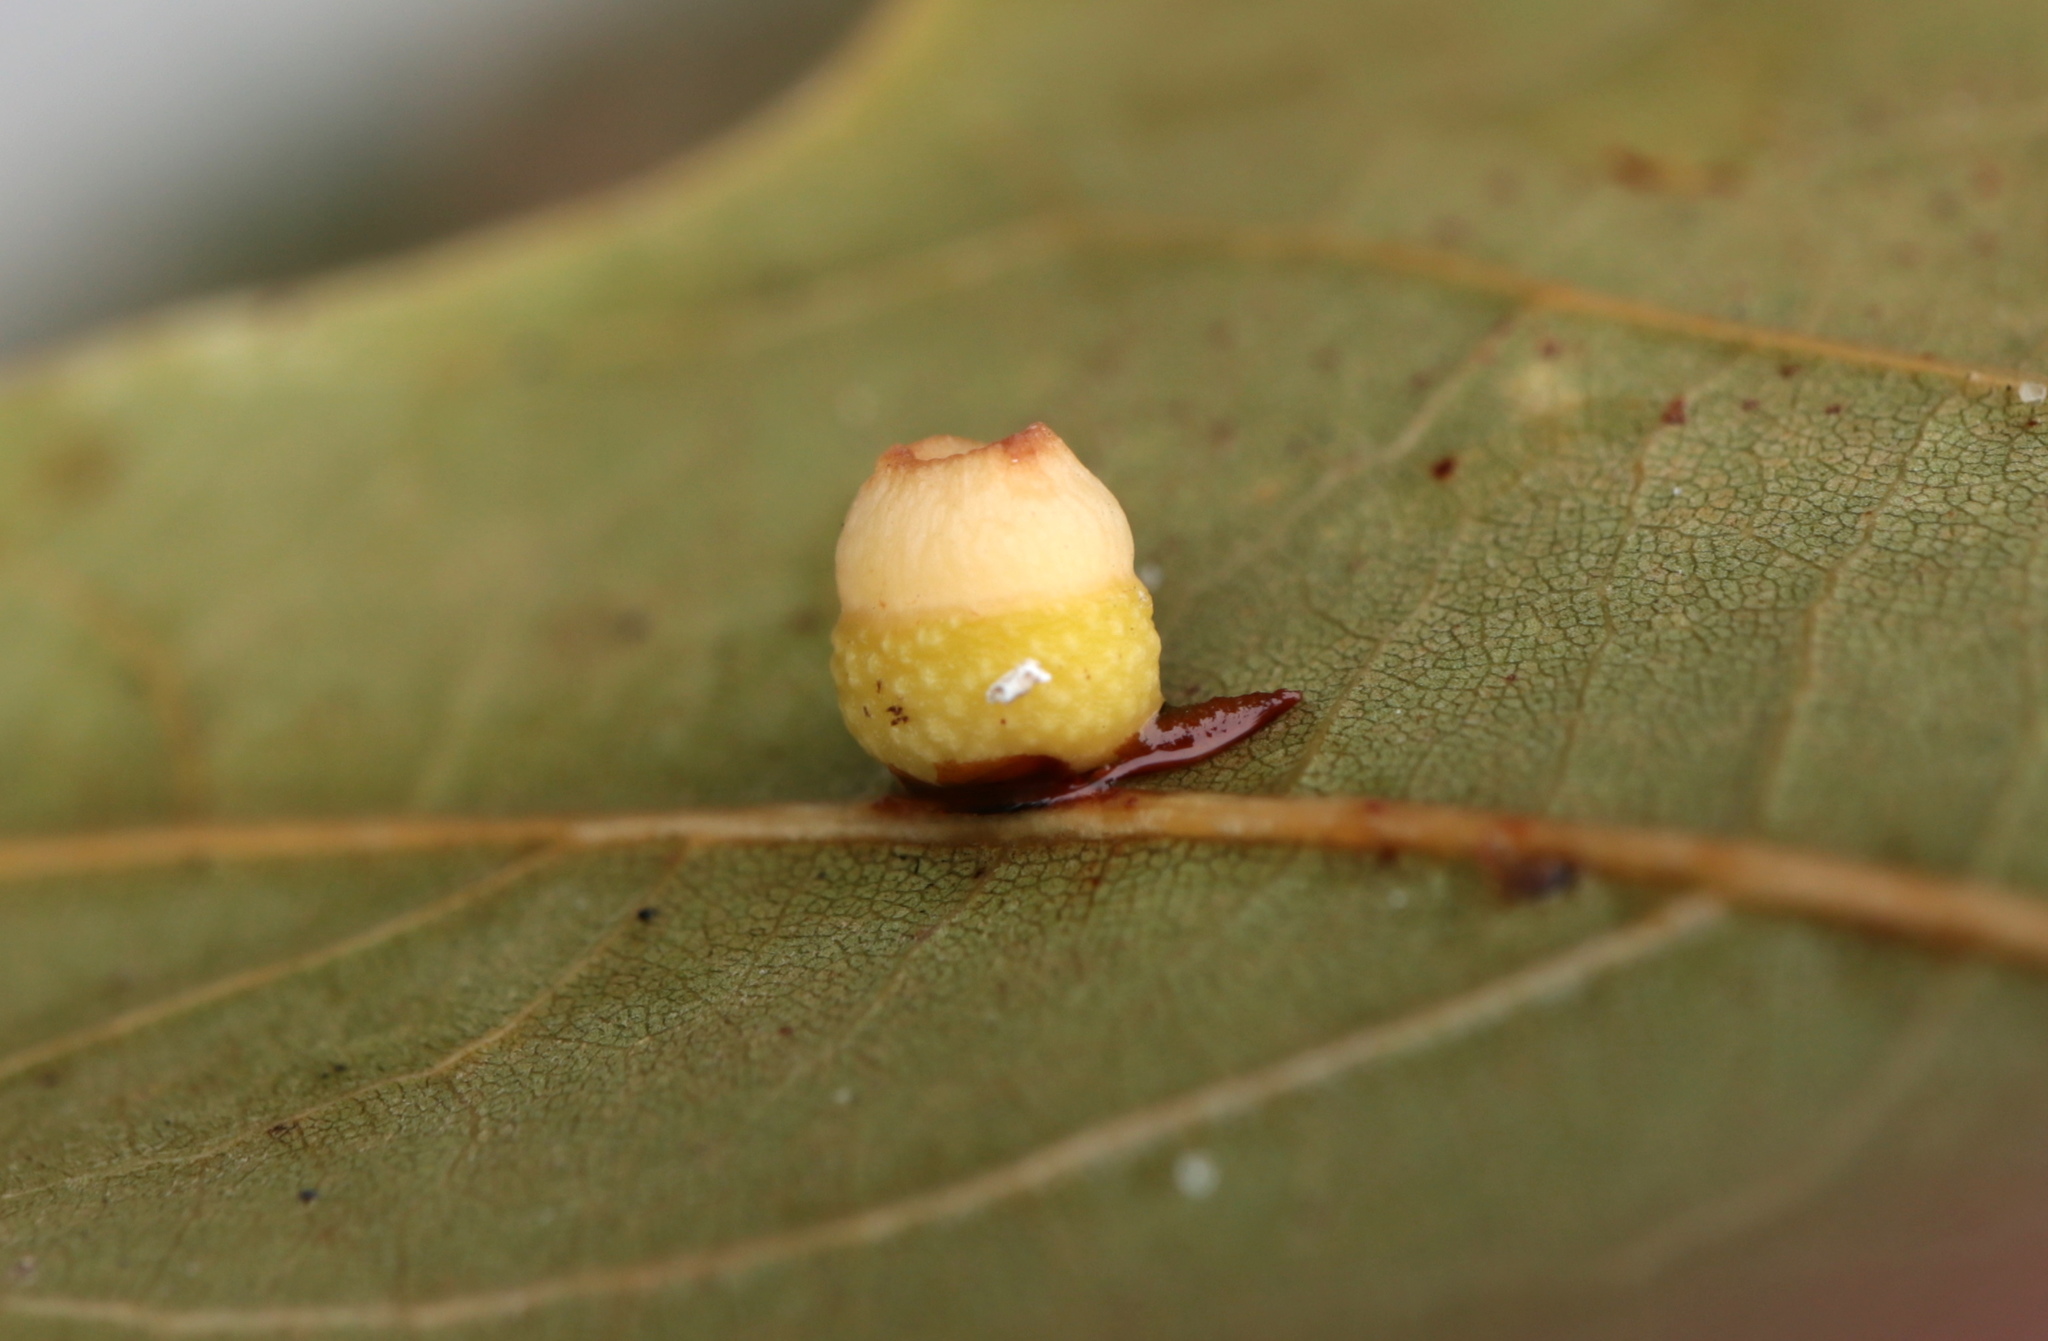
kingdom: Animalia
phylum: Arthropoda
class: Insecta
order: Hymenoptera
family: Cynipidae
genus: Kokkocynips
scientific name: Kokkocynips rileyi
